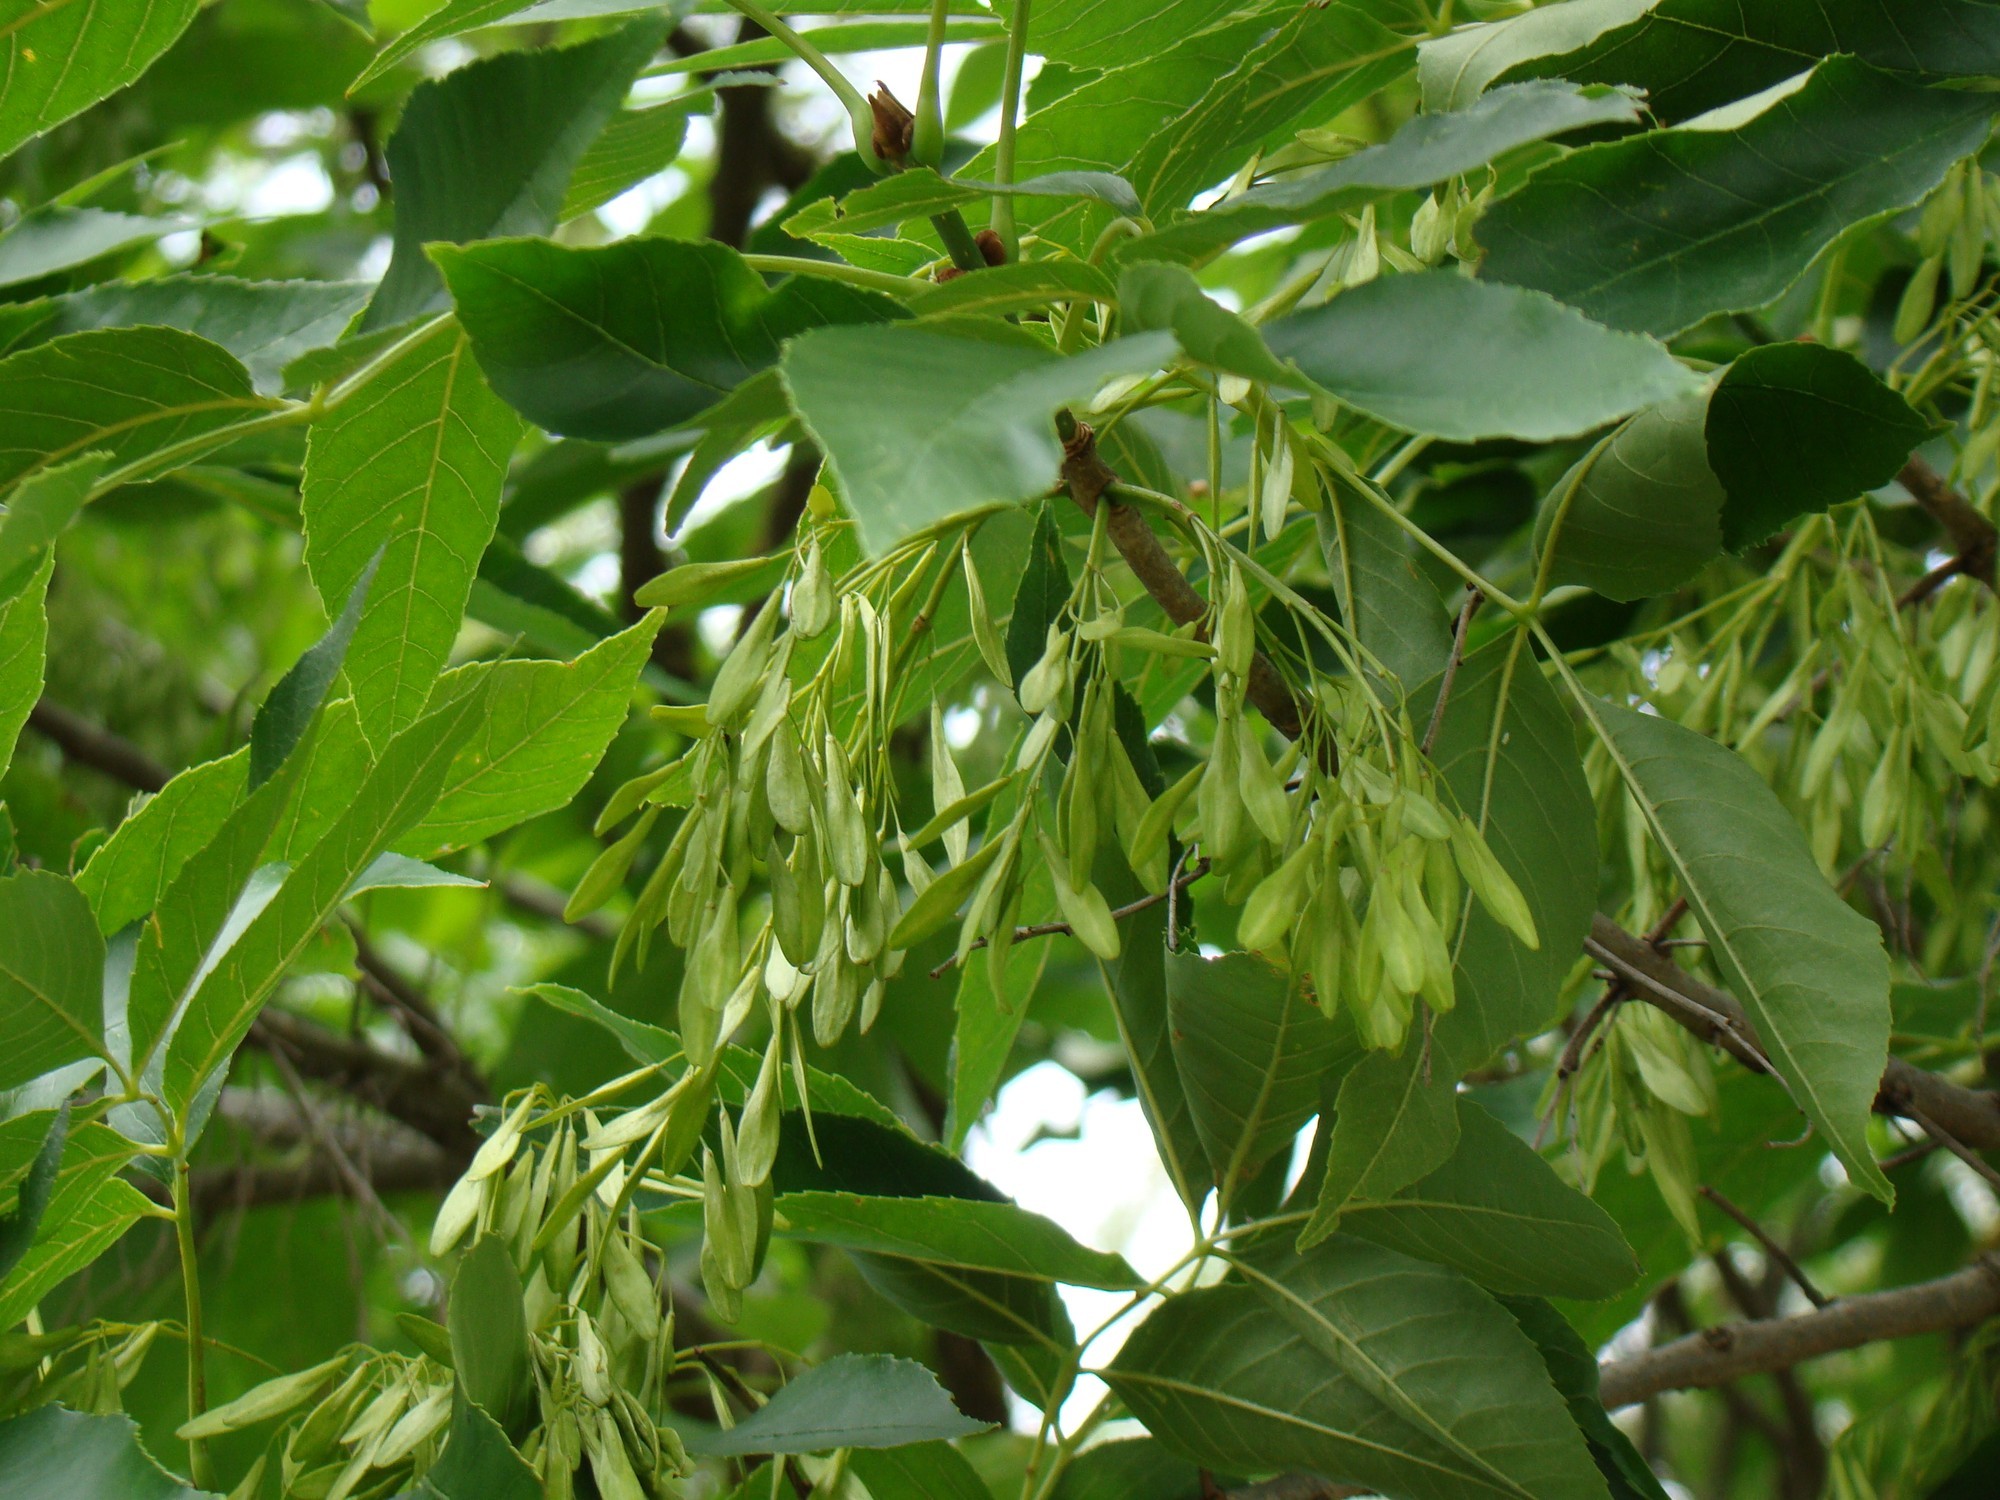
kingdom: Plantae
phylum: Tracheophyta
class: Magnoliopsida
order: Lamiales
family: Oleaceae
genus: Fraxinus
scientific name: Fraxinus pennsylvanica
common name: Green ash
